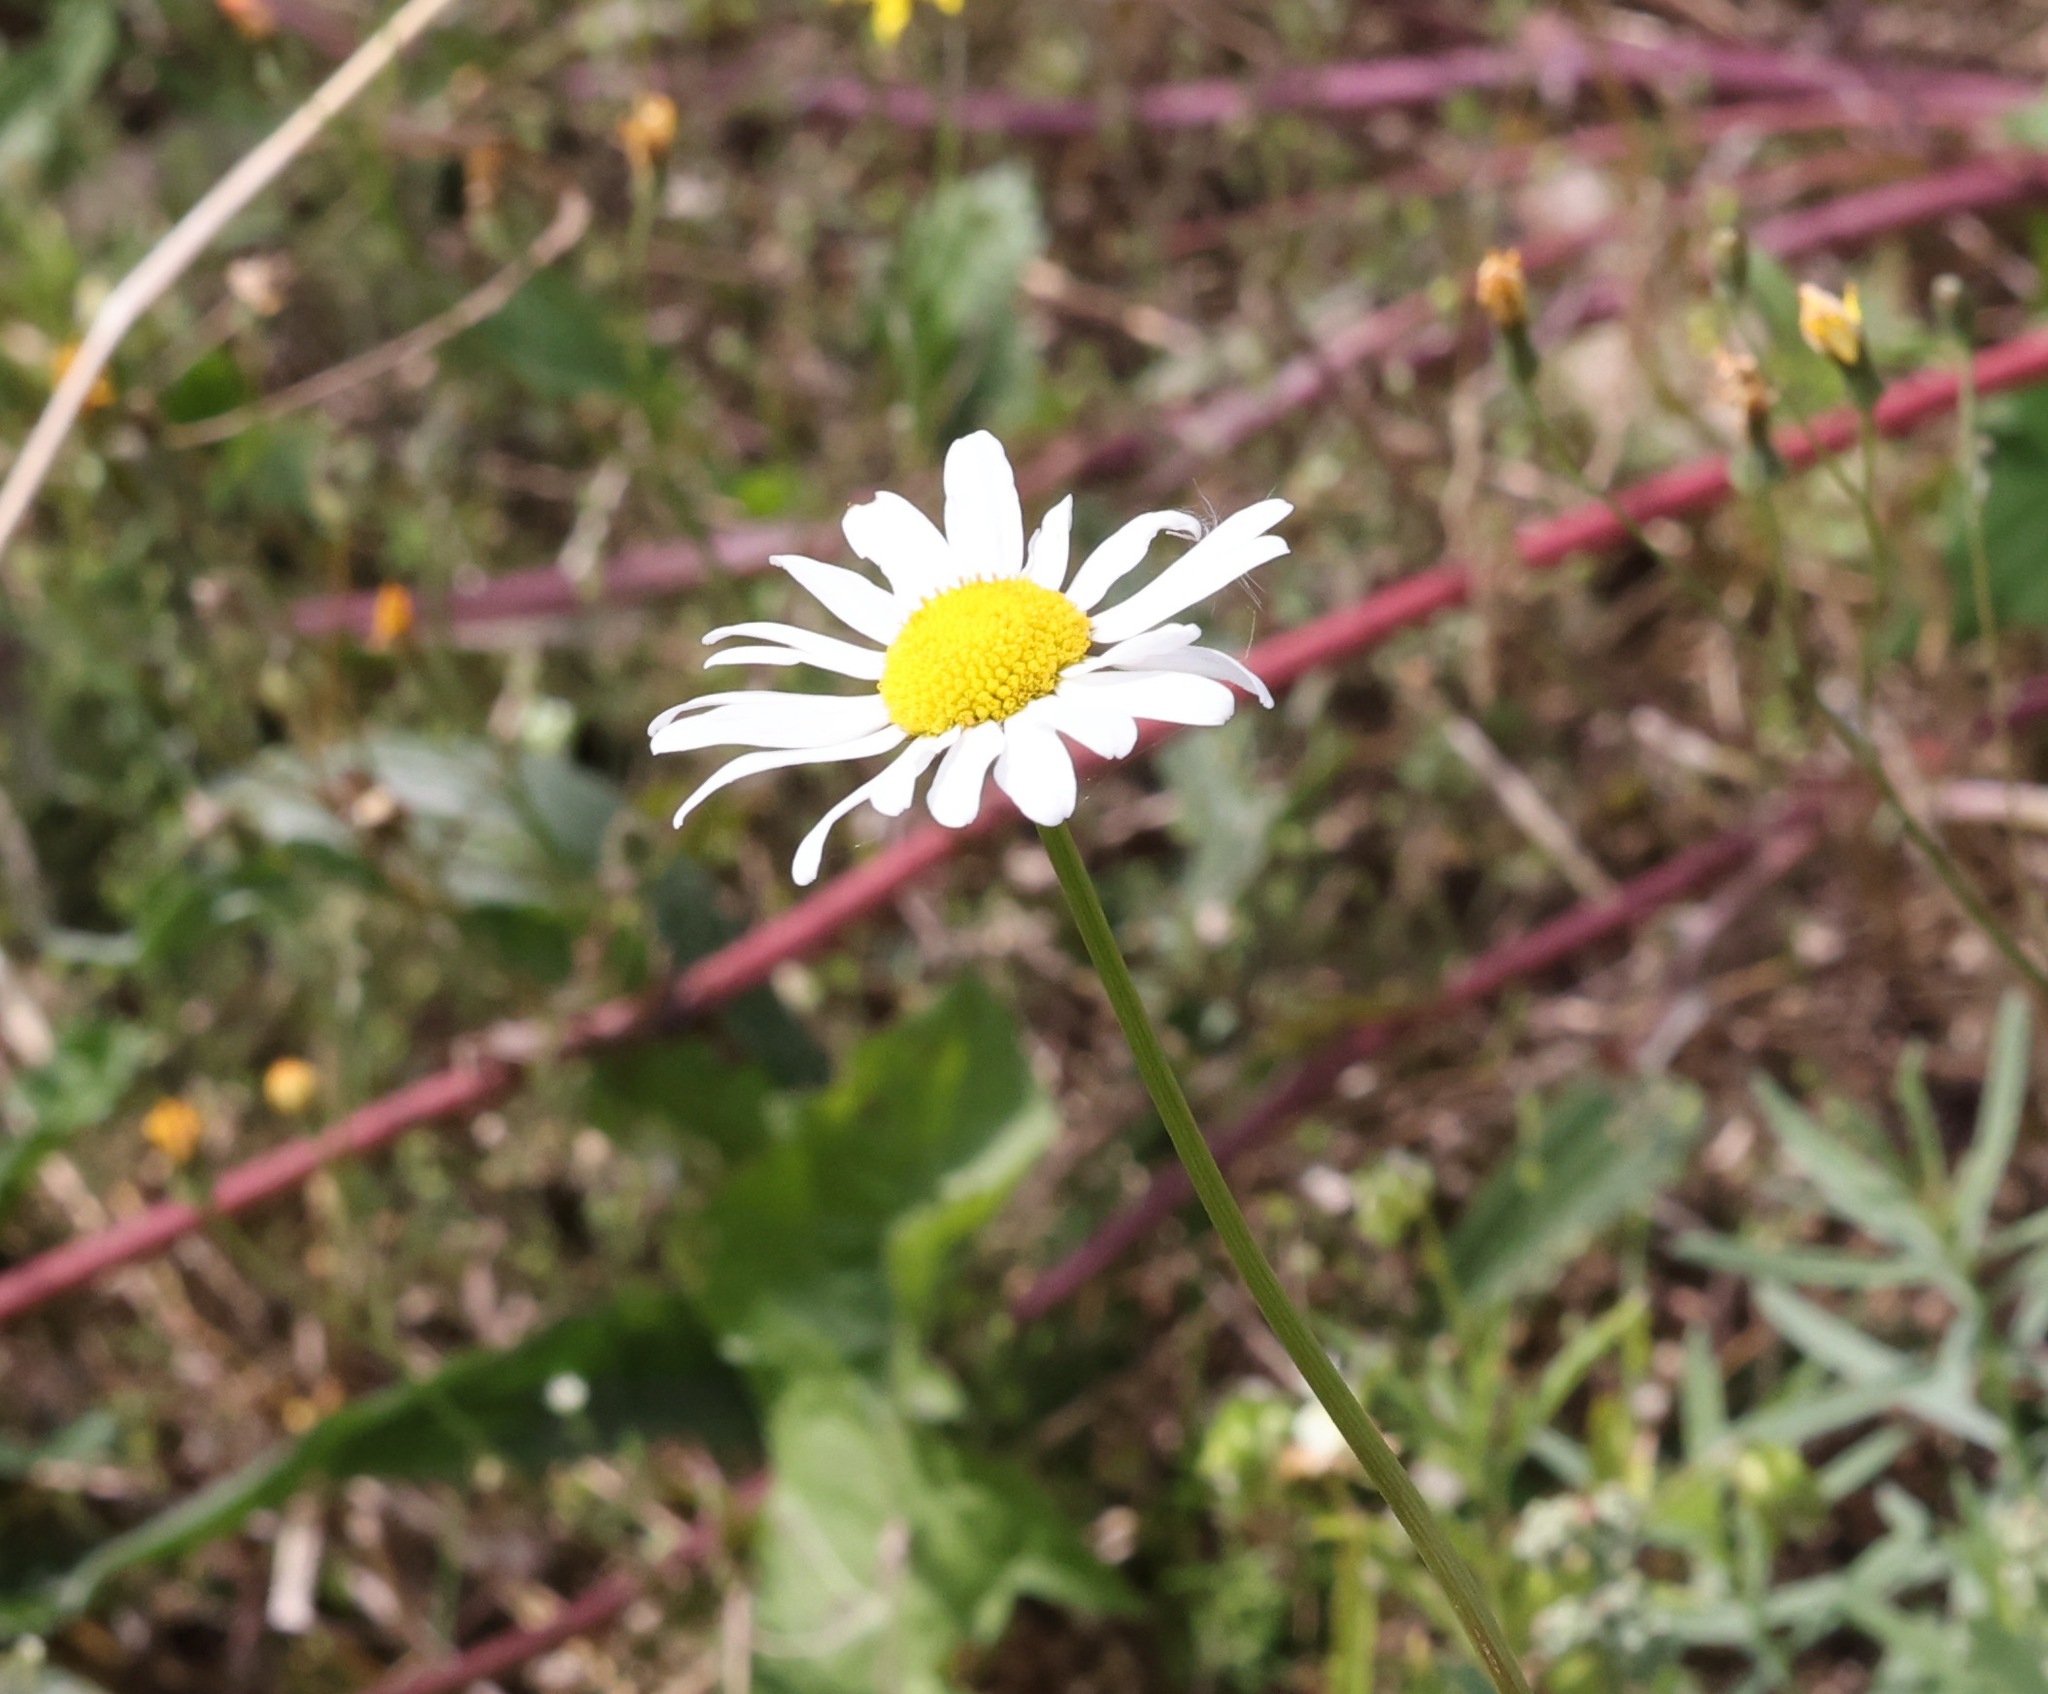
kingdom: Plantae
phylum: Tracheophyta
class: Magnoliopsida
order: Asterales
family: Asteraceae
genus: Leucanthemum
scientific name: Leucanthemum vulgare
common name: Oxeye daisy
